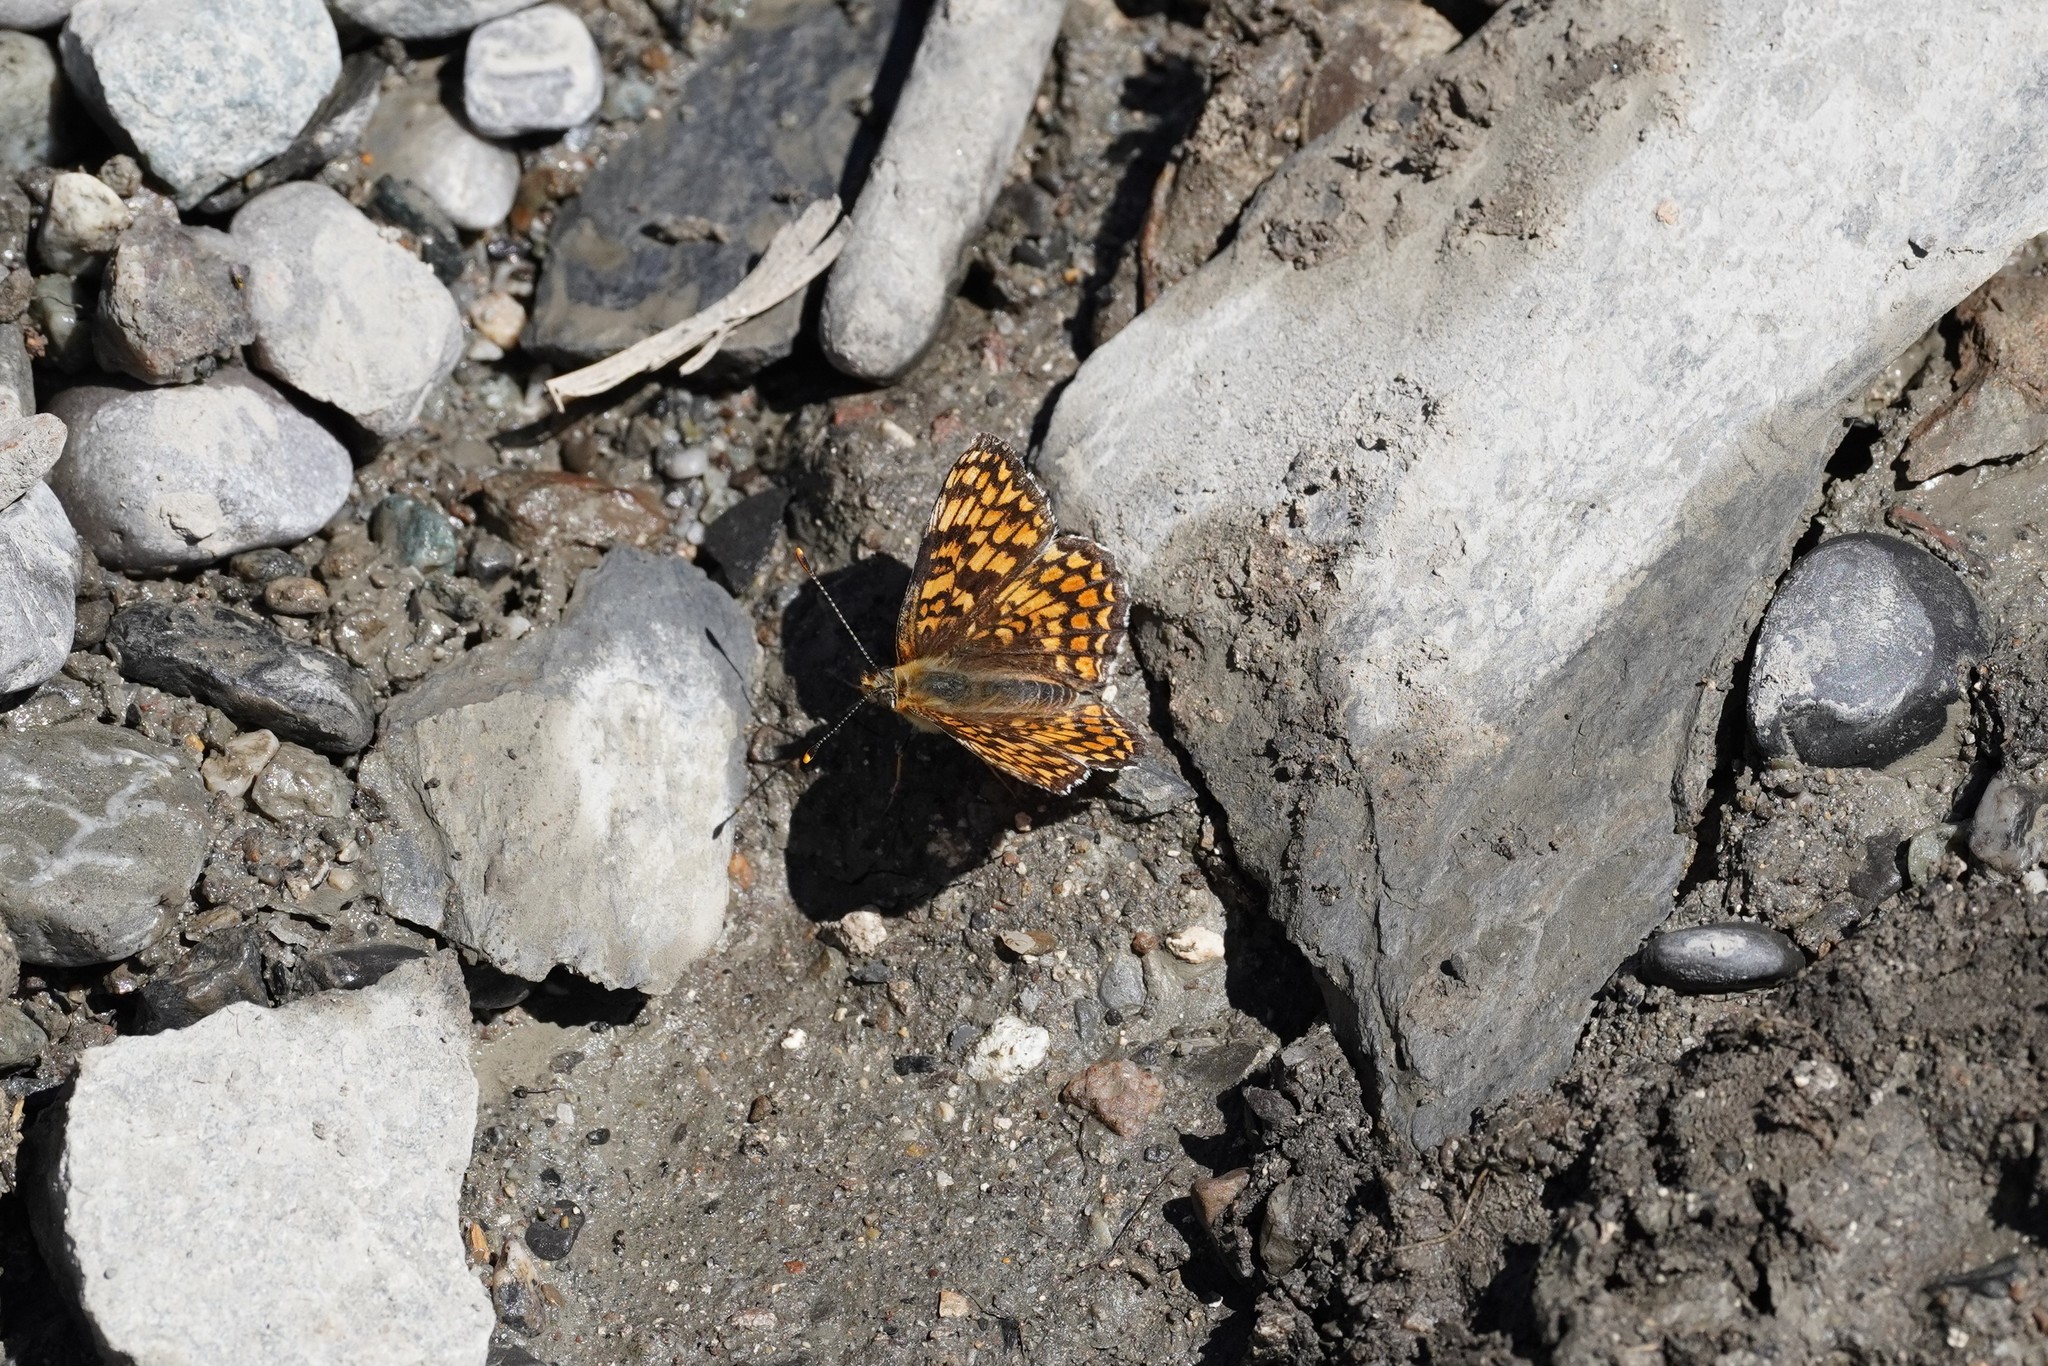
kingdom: Animalia
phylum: Arthropoda
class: Insecta
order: Lepidoptera
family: Nymphalidae
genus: Melitaea
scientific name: Melitaea phoebe
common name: Knapweed fritillary
